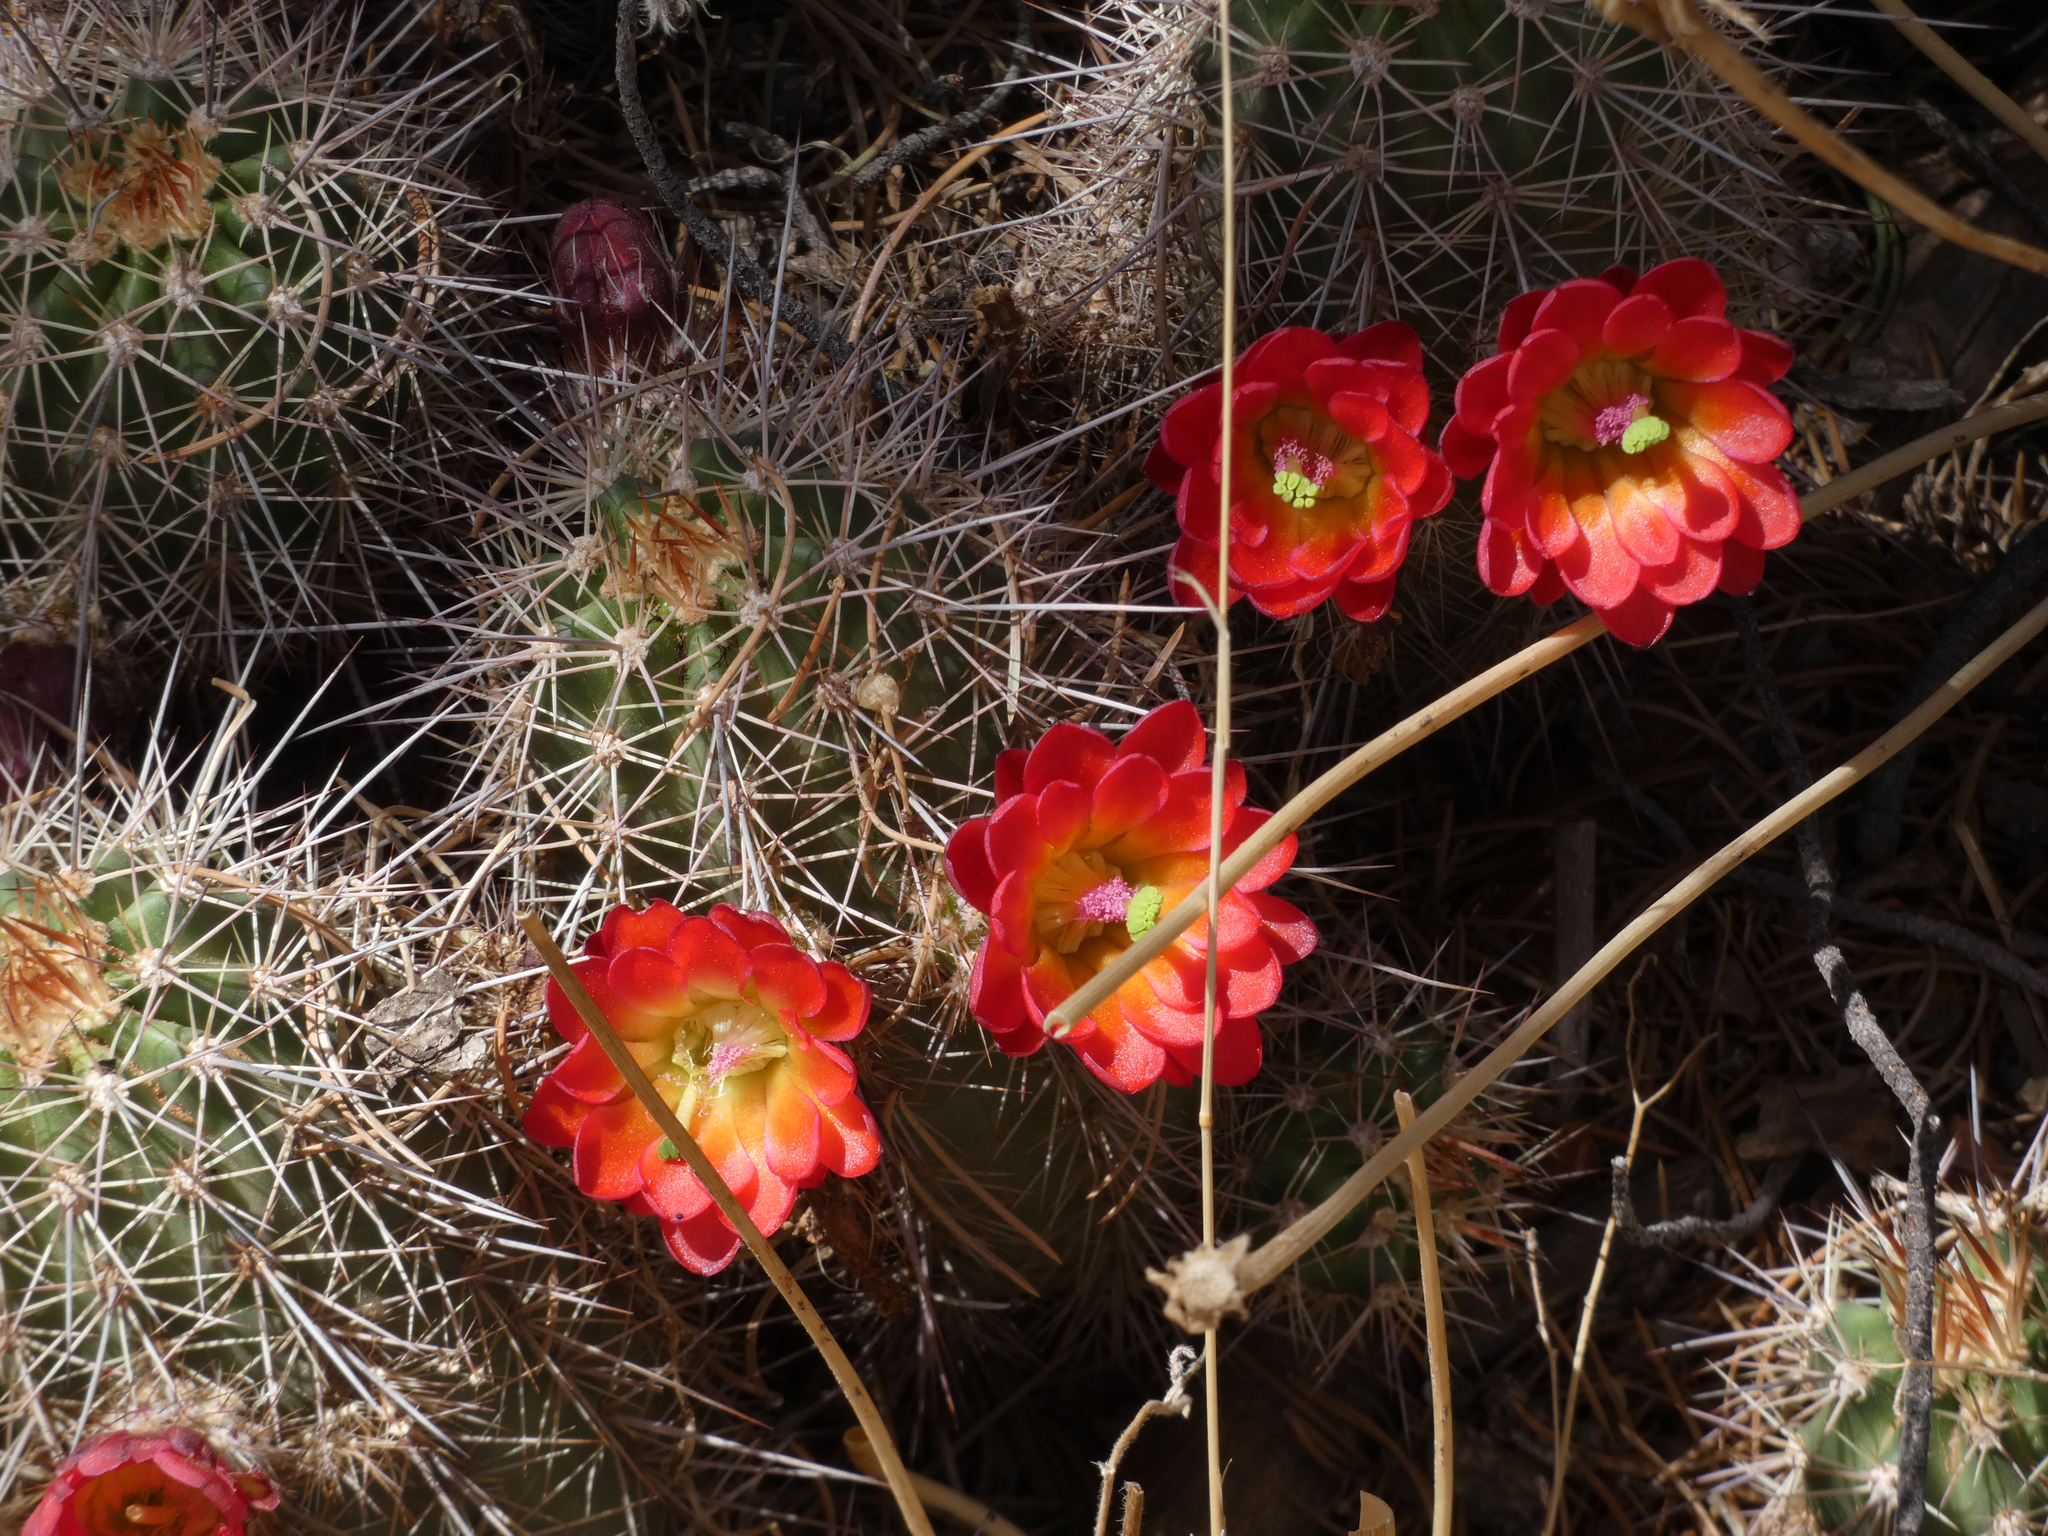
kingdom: Plantae
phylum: Tracheophyta
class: Magnoliopsida
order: Caryophyllales
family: Cactaceae
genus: Echinocereus
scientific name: Echinocereus bakeri
